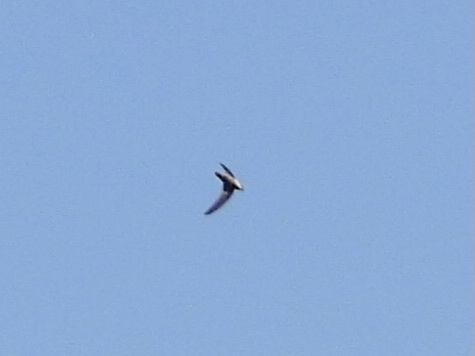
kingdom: Animalia
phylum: Chordata
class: Aves
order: Apodiformes
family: Apodidae
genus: Chaetura
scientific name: Chaetura vauxi
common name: Vaux's swift
